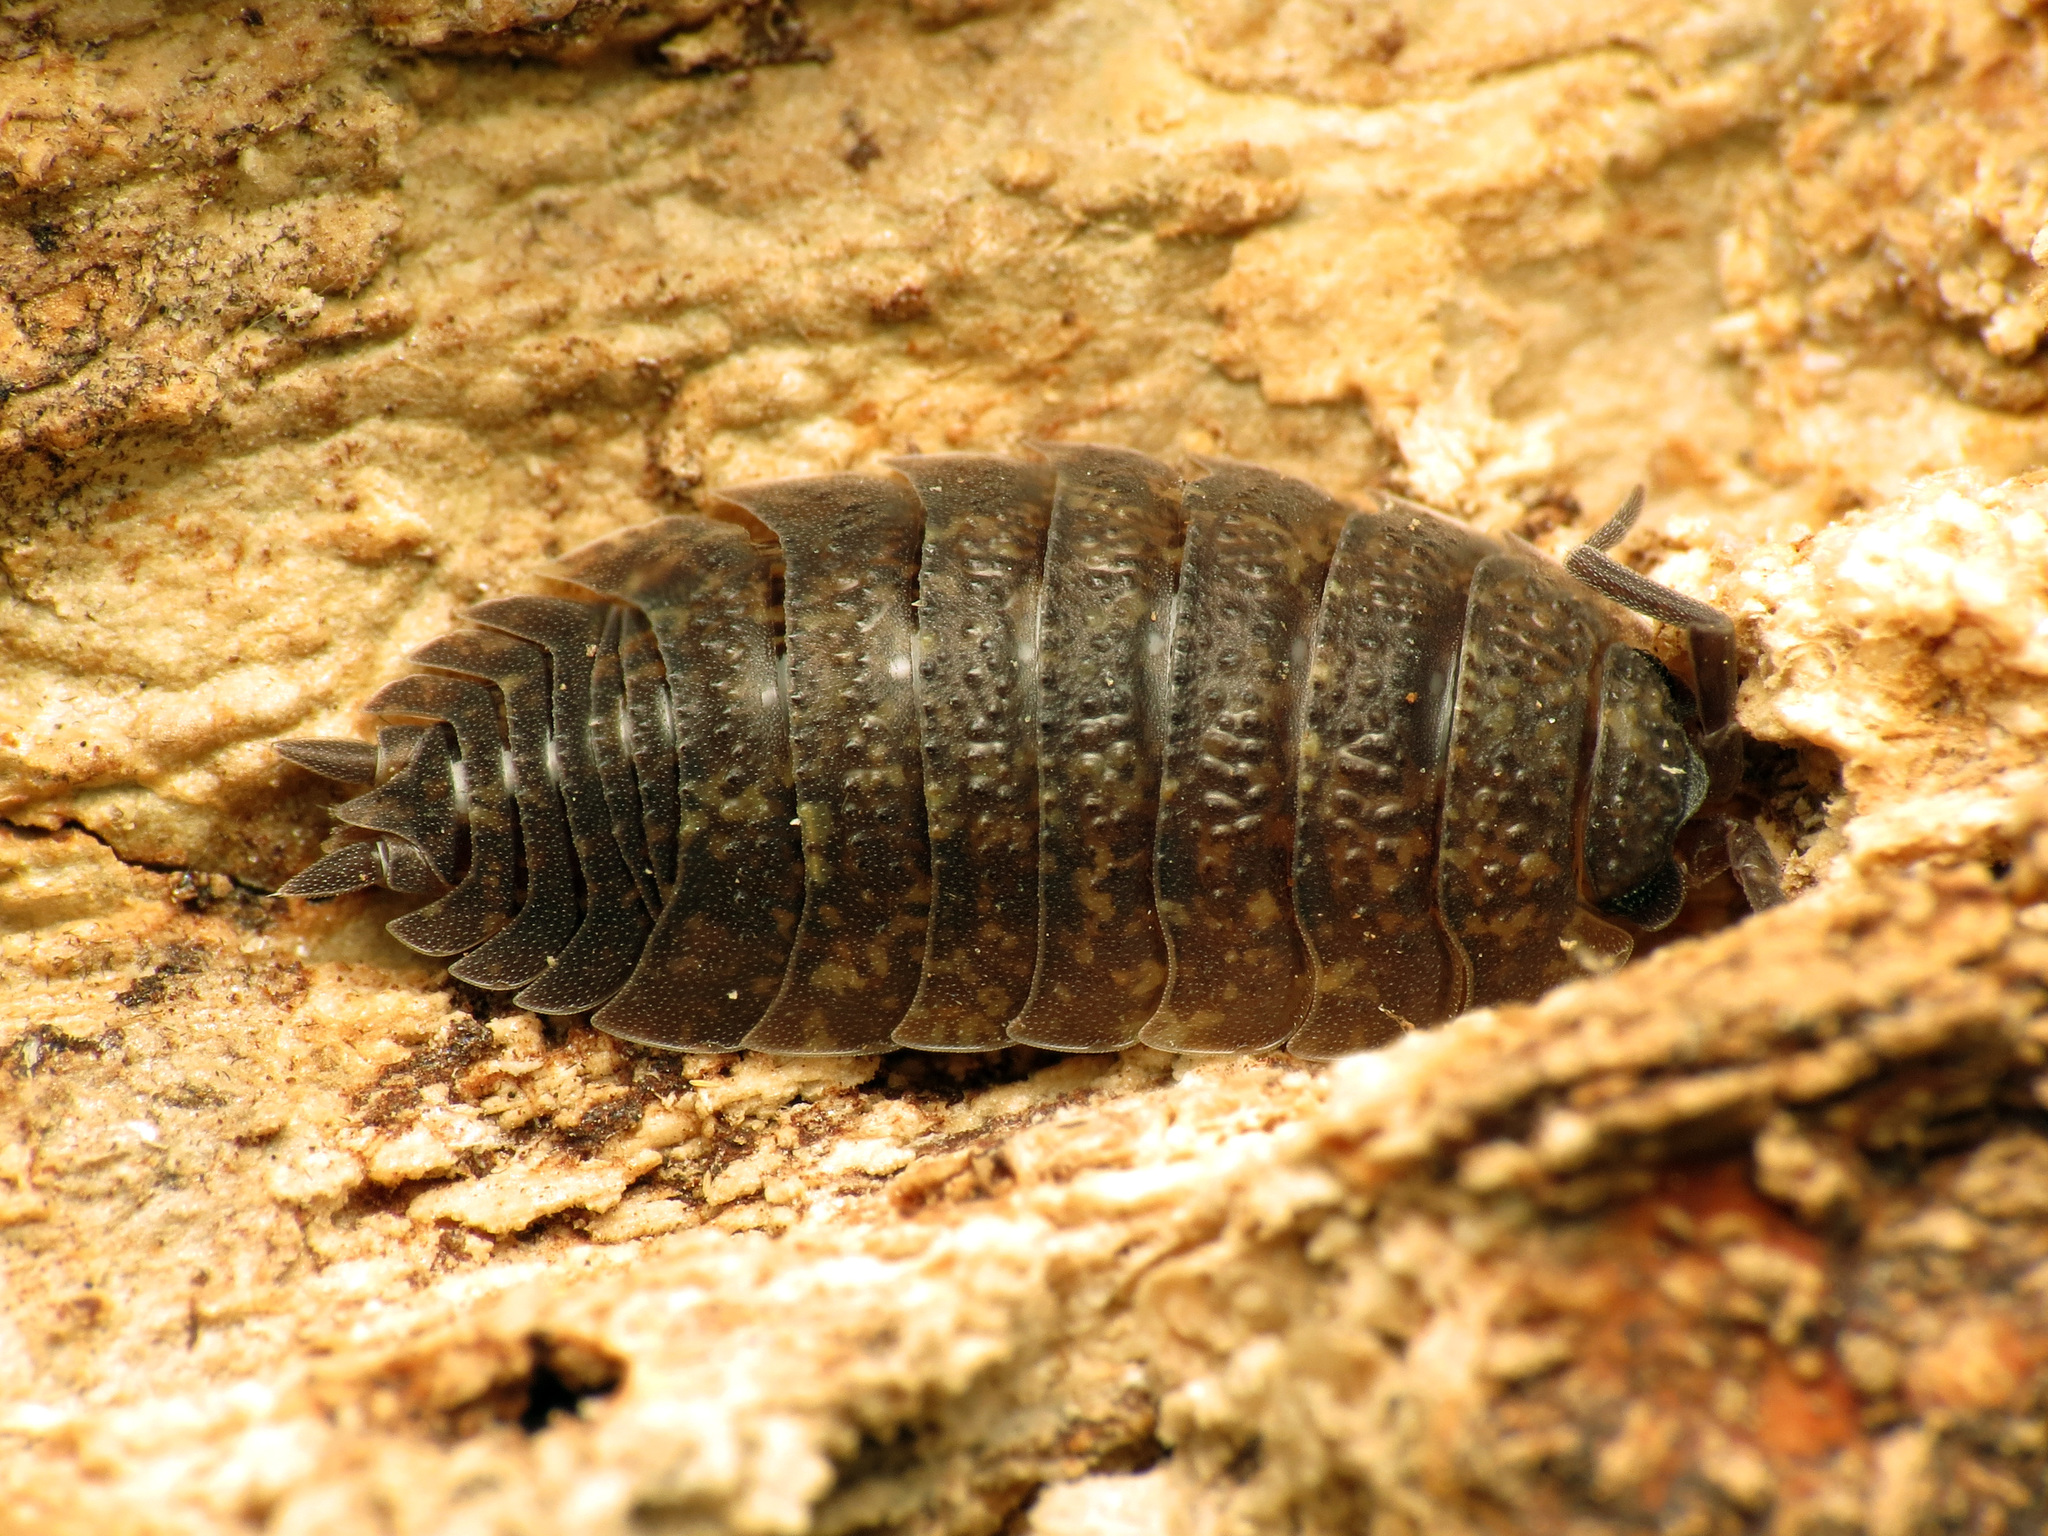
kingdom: Animalia
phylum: Arthropoda
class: Malacostraca
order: Isopoda
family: Porcellionidae
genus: Porcellio
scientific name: Porcellio scaber
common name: Common rough woodlouse
